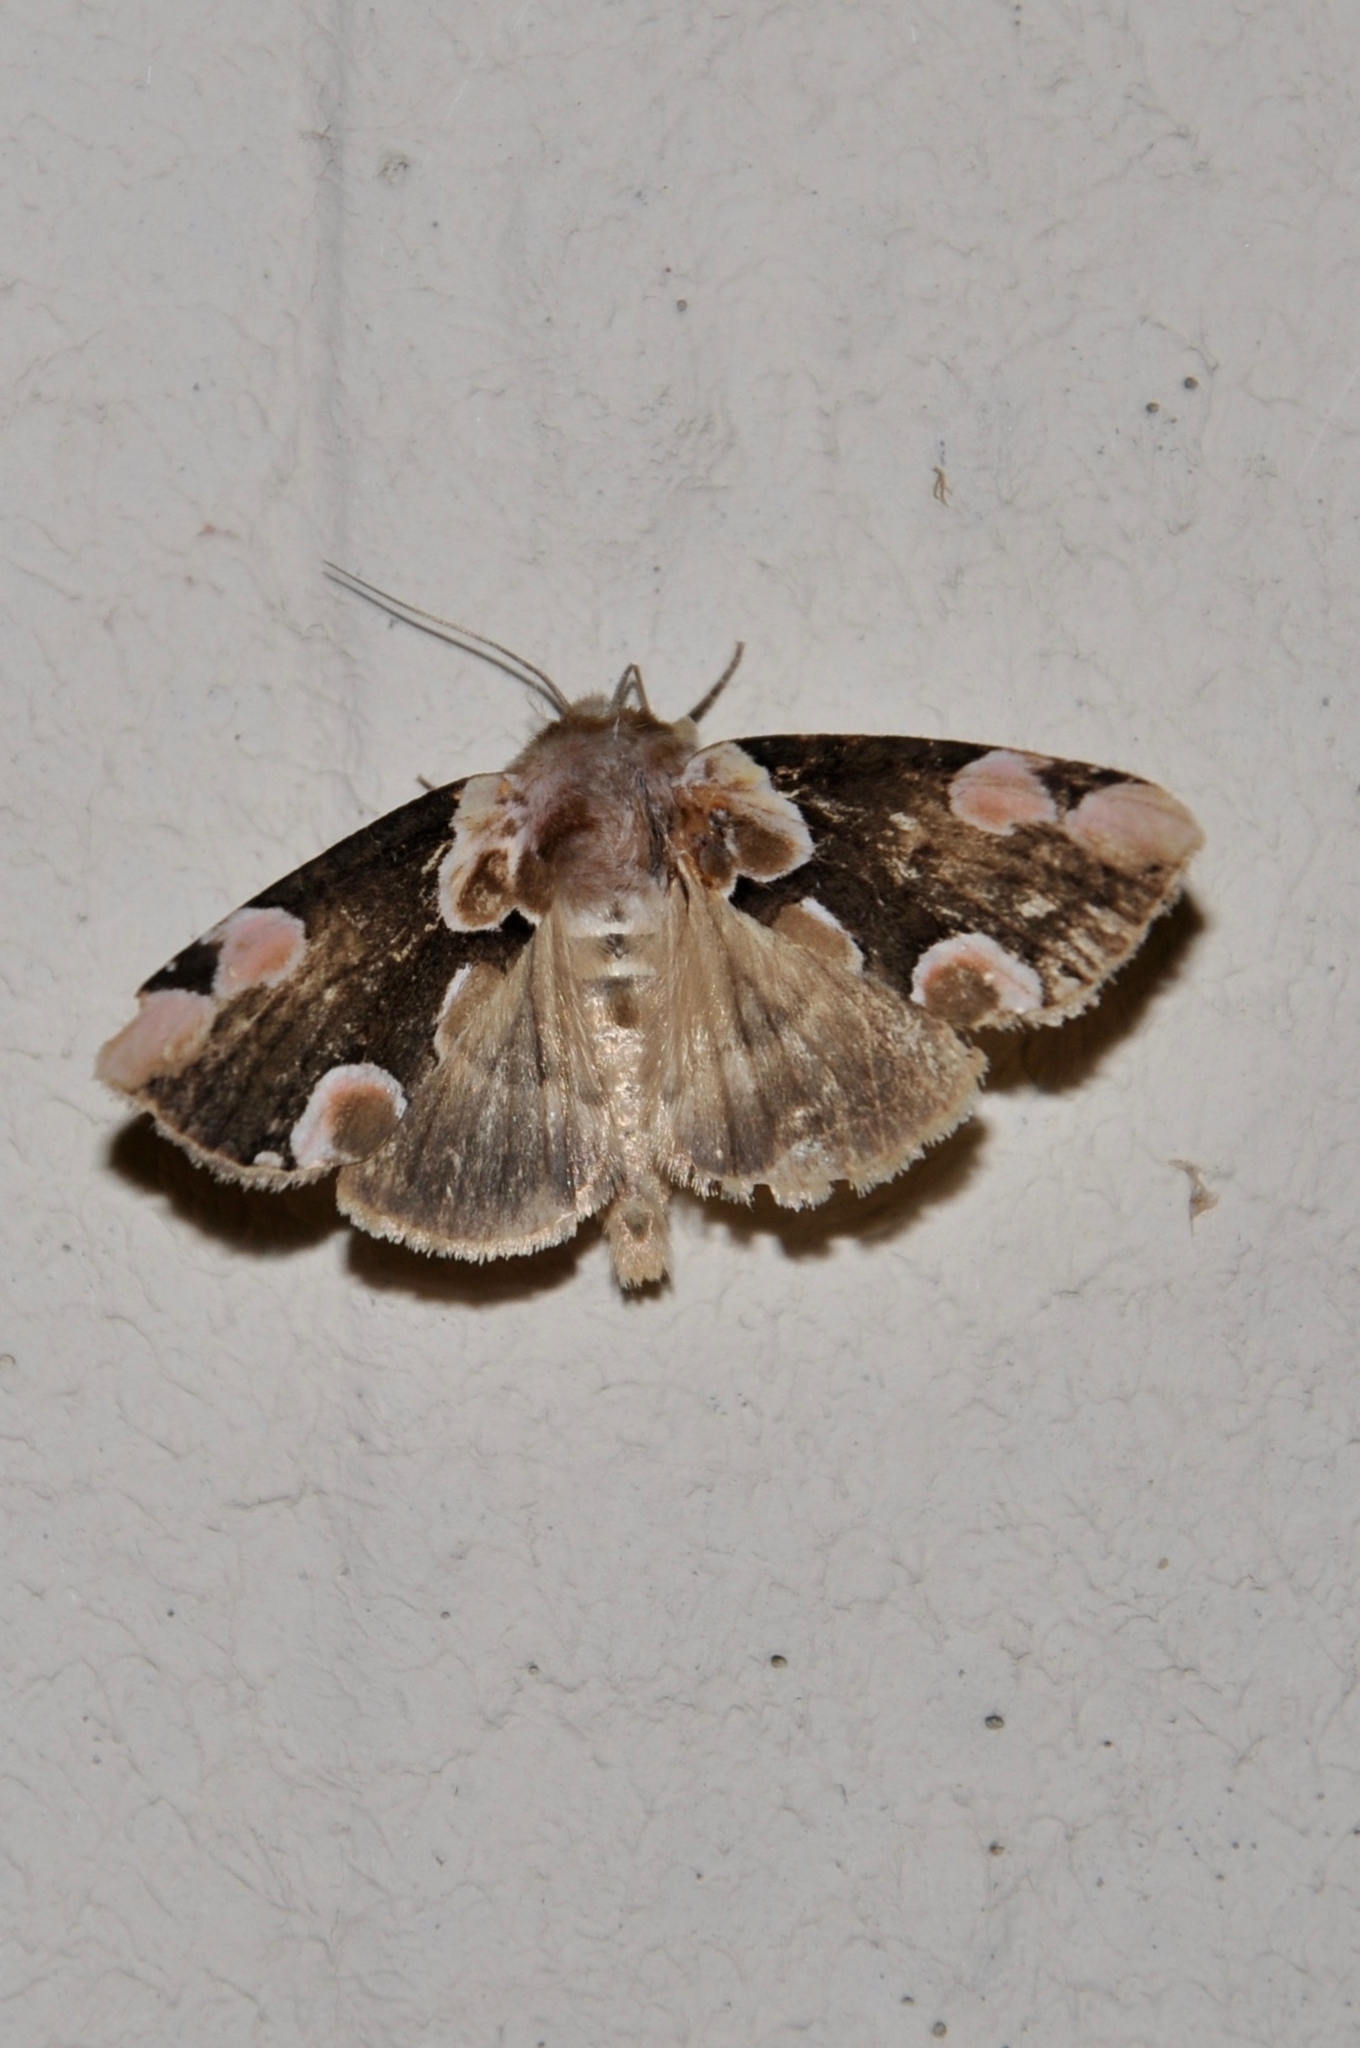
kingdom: Animalia
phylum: Arthropoda
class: Insecta
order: Lepidoptera
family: Drepanidae
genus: Thyatira
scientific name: Thyatira batis
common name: Peach blossom
